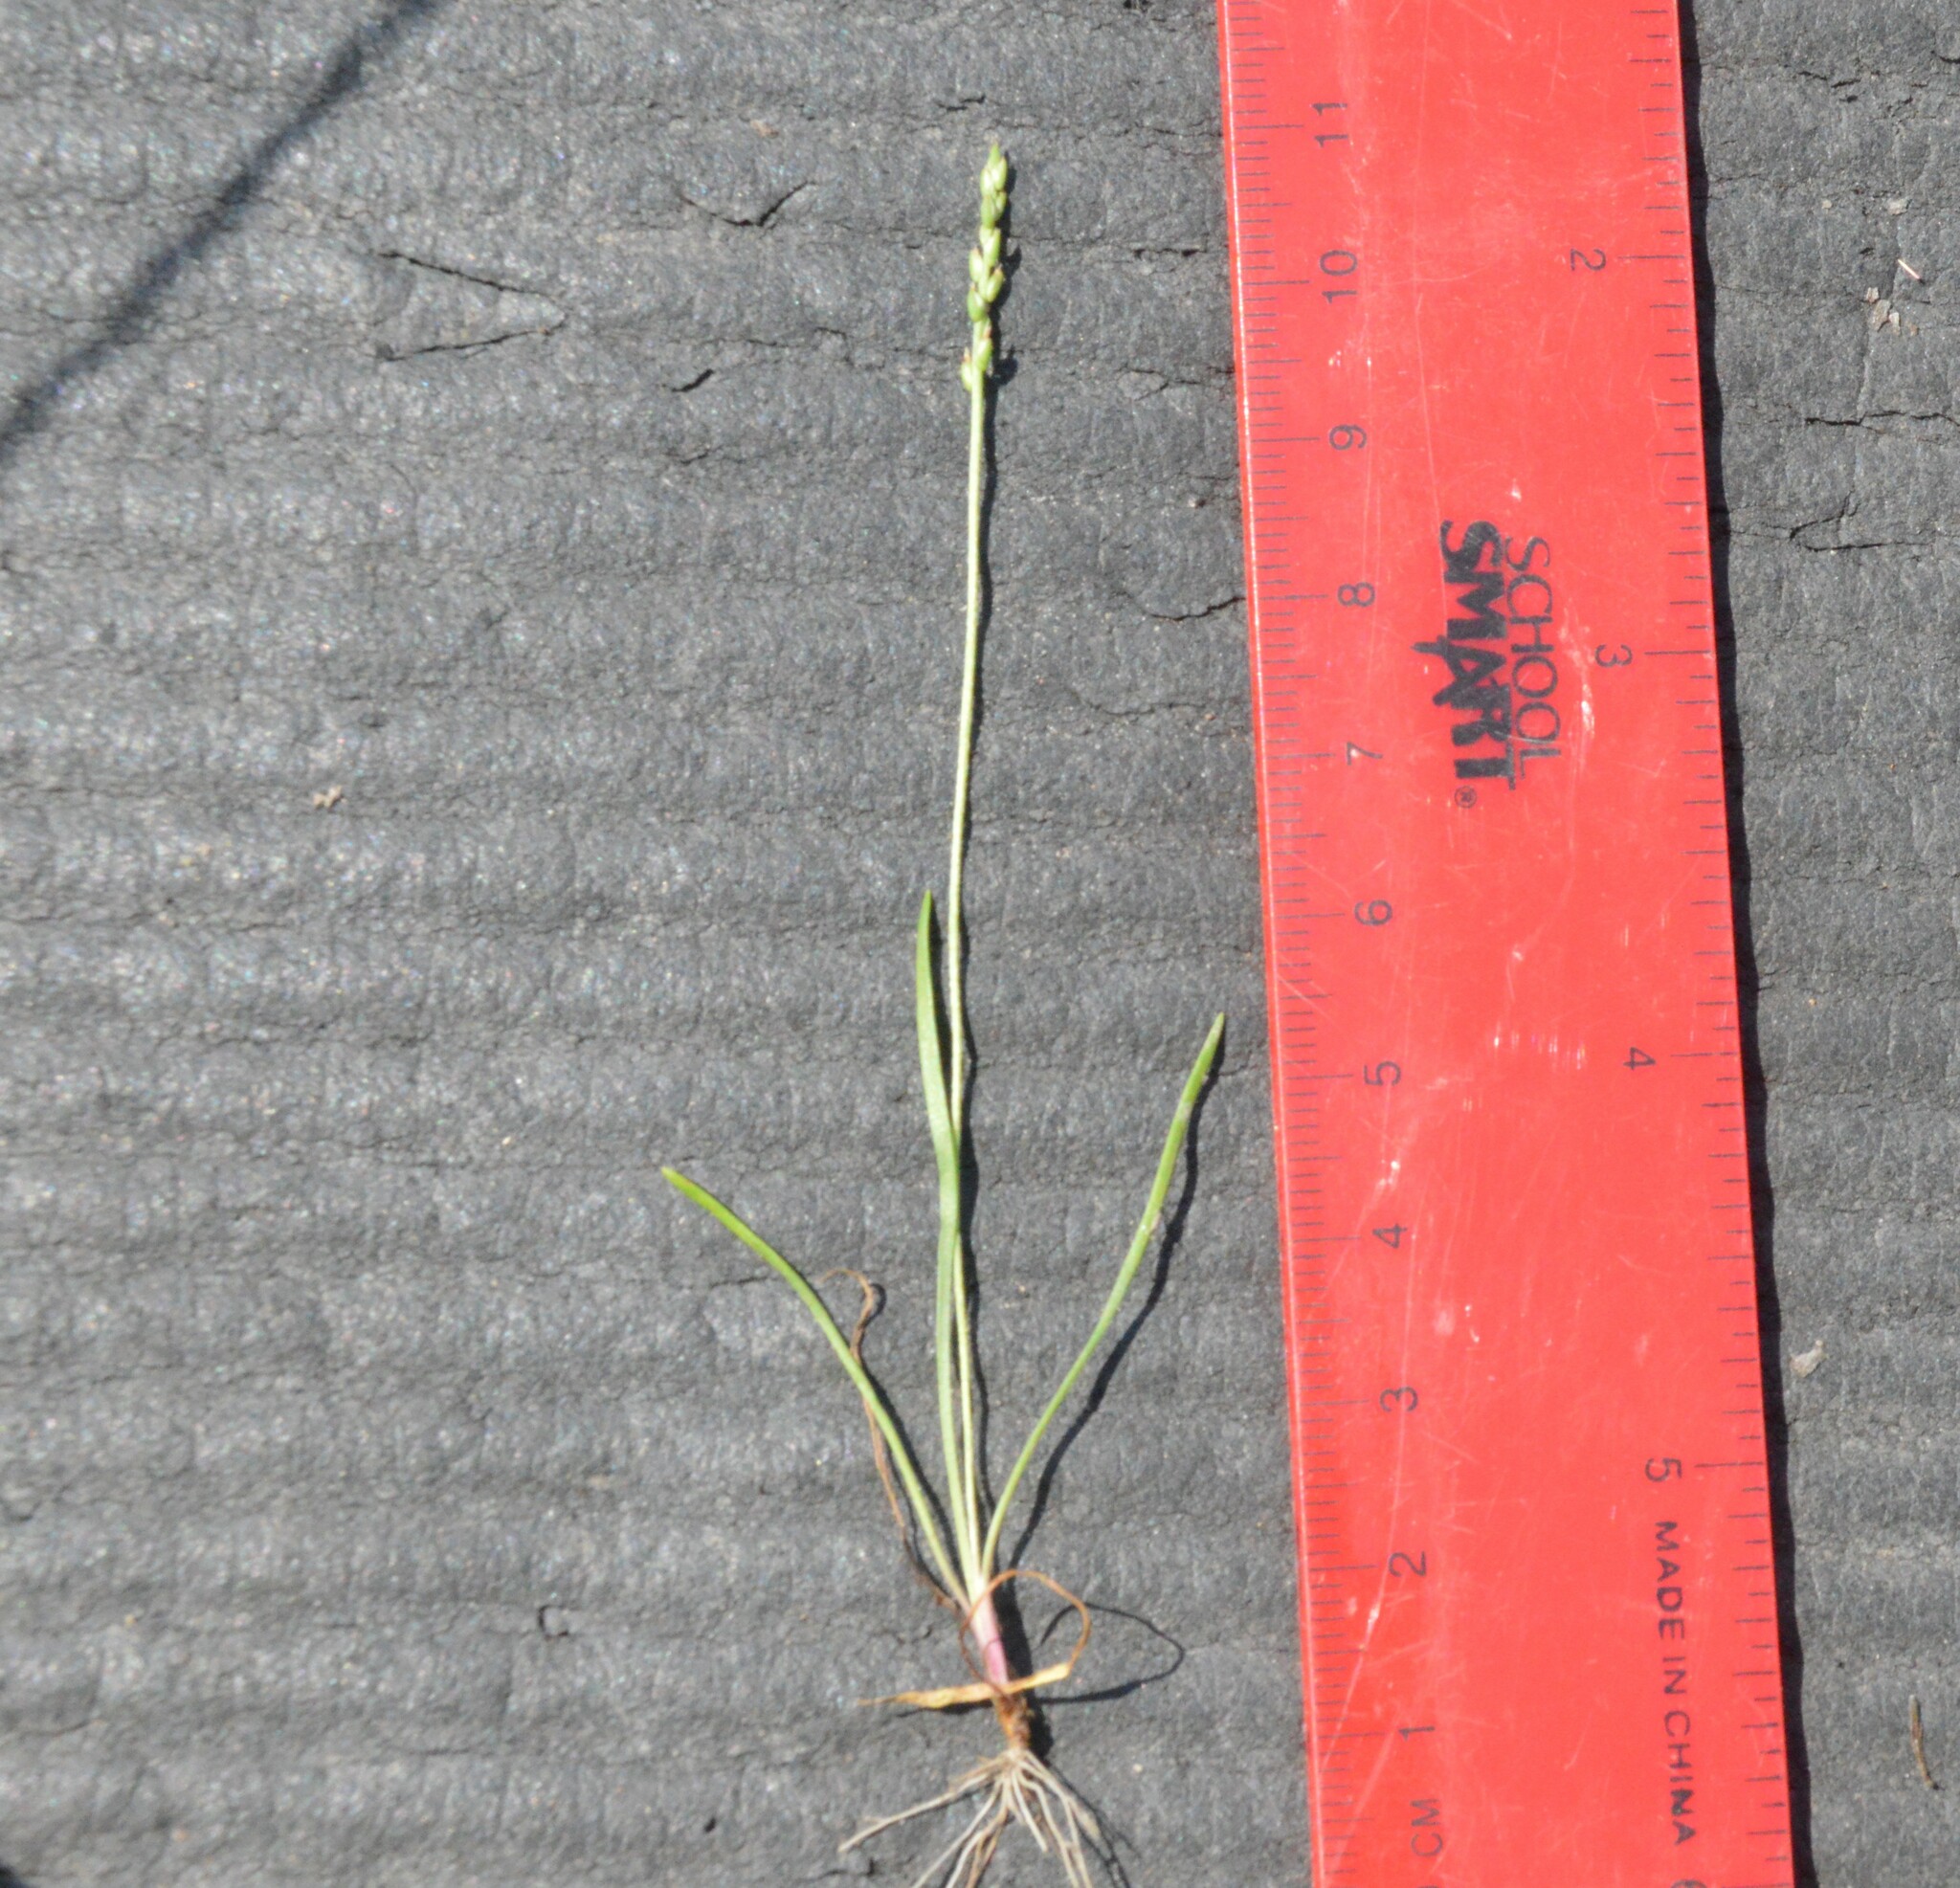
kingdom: Plantae
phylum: Tracheophyta
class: Magnoliopsida
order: Lamiales
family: Plantaginaceae
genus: Plantago
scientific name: Plantago heterophylla
